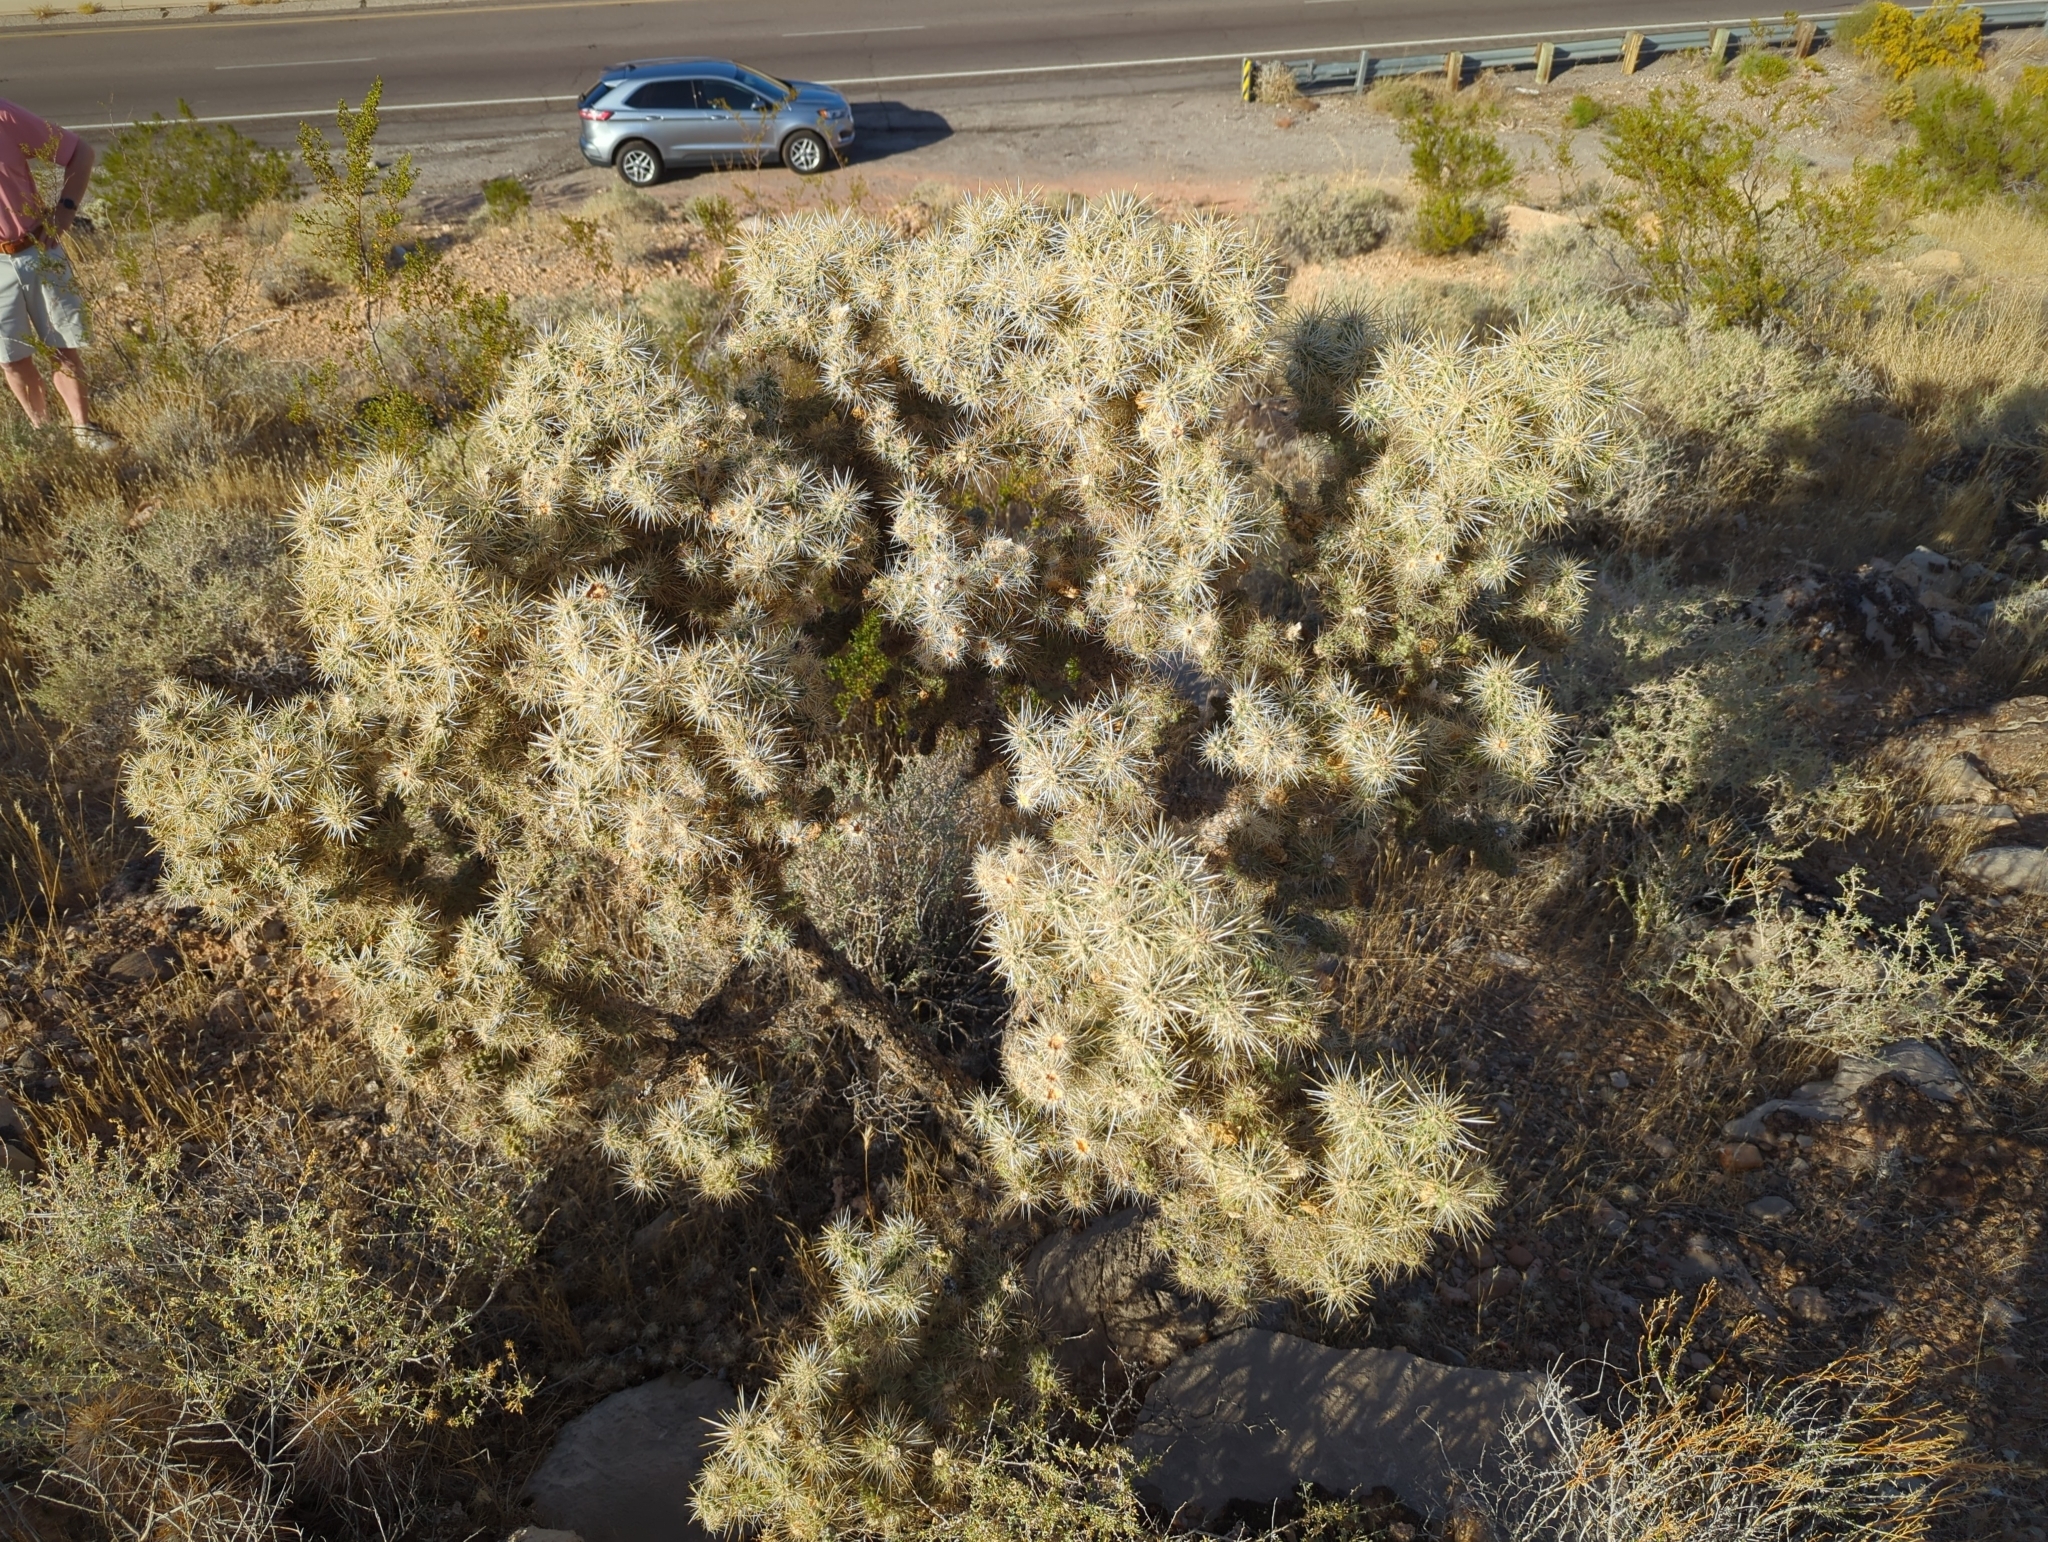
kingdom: Plantae
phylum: Tracheophyta
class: Magnoliopsida
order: Caryophyllales
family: Cactaceae
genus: Cylindropuntia
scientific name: Cylindropuntia echinocarpa
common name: Ground cholla
